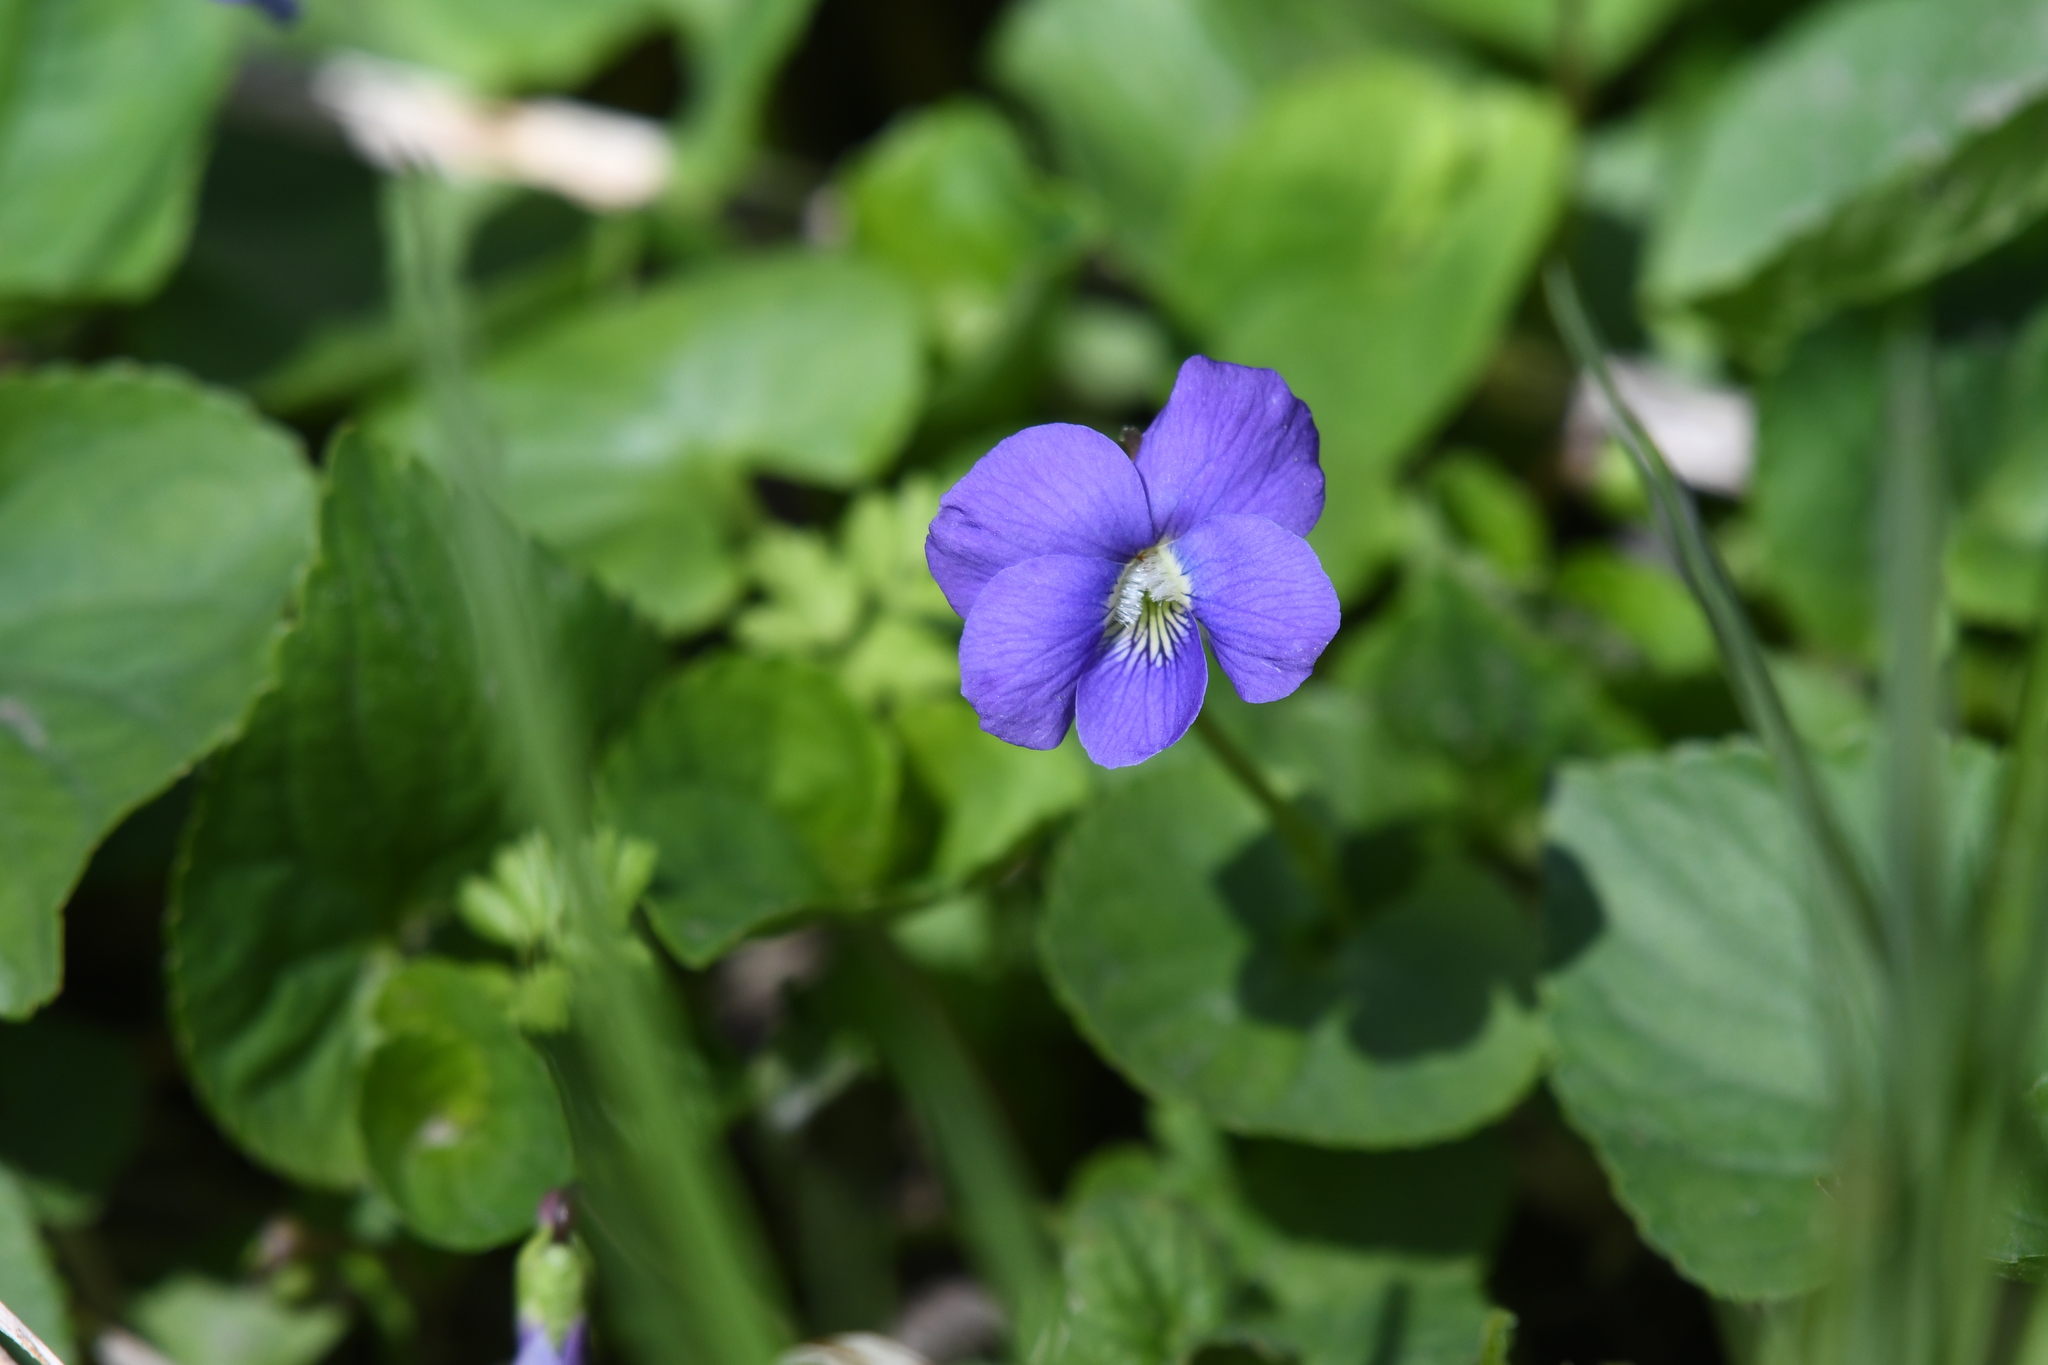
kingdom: Plantae
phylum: Tracheophyta
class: Magnoliopsida
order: Malpighiales
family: Violaceae
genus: Viola
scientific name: Viola sororia
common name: Dooryard violet
